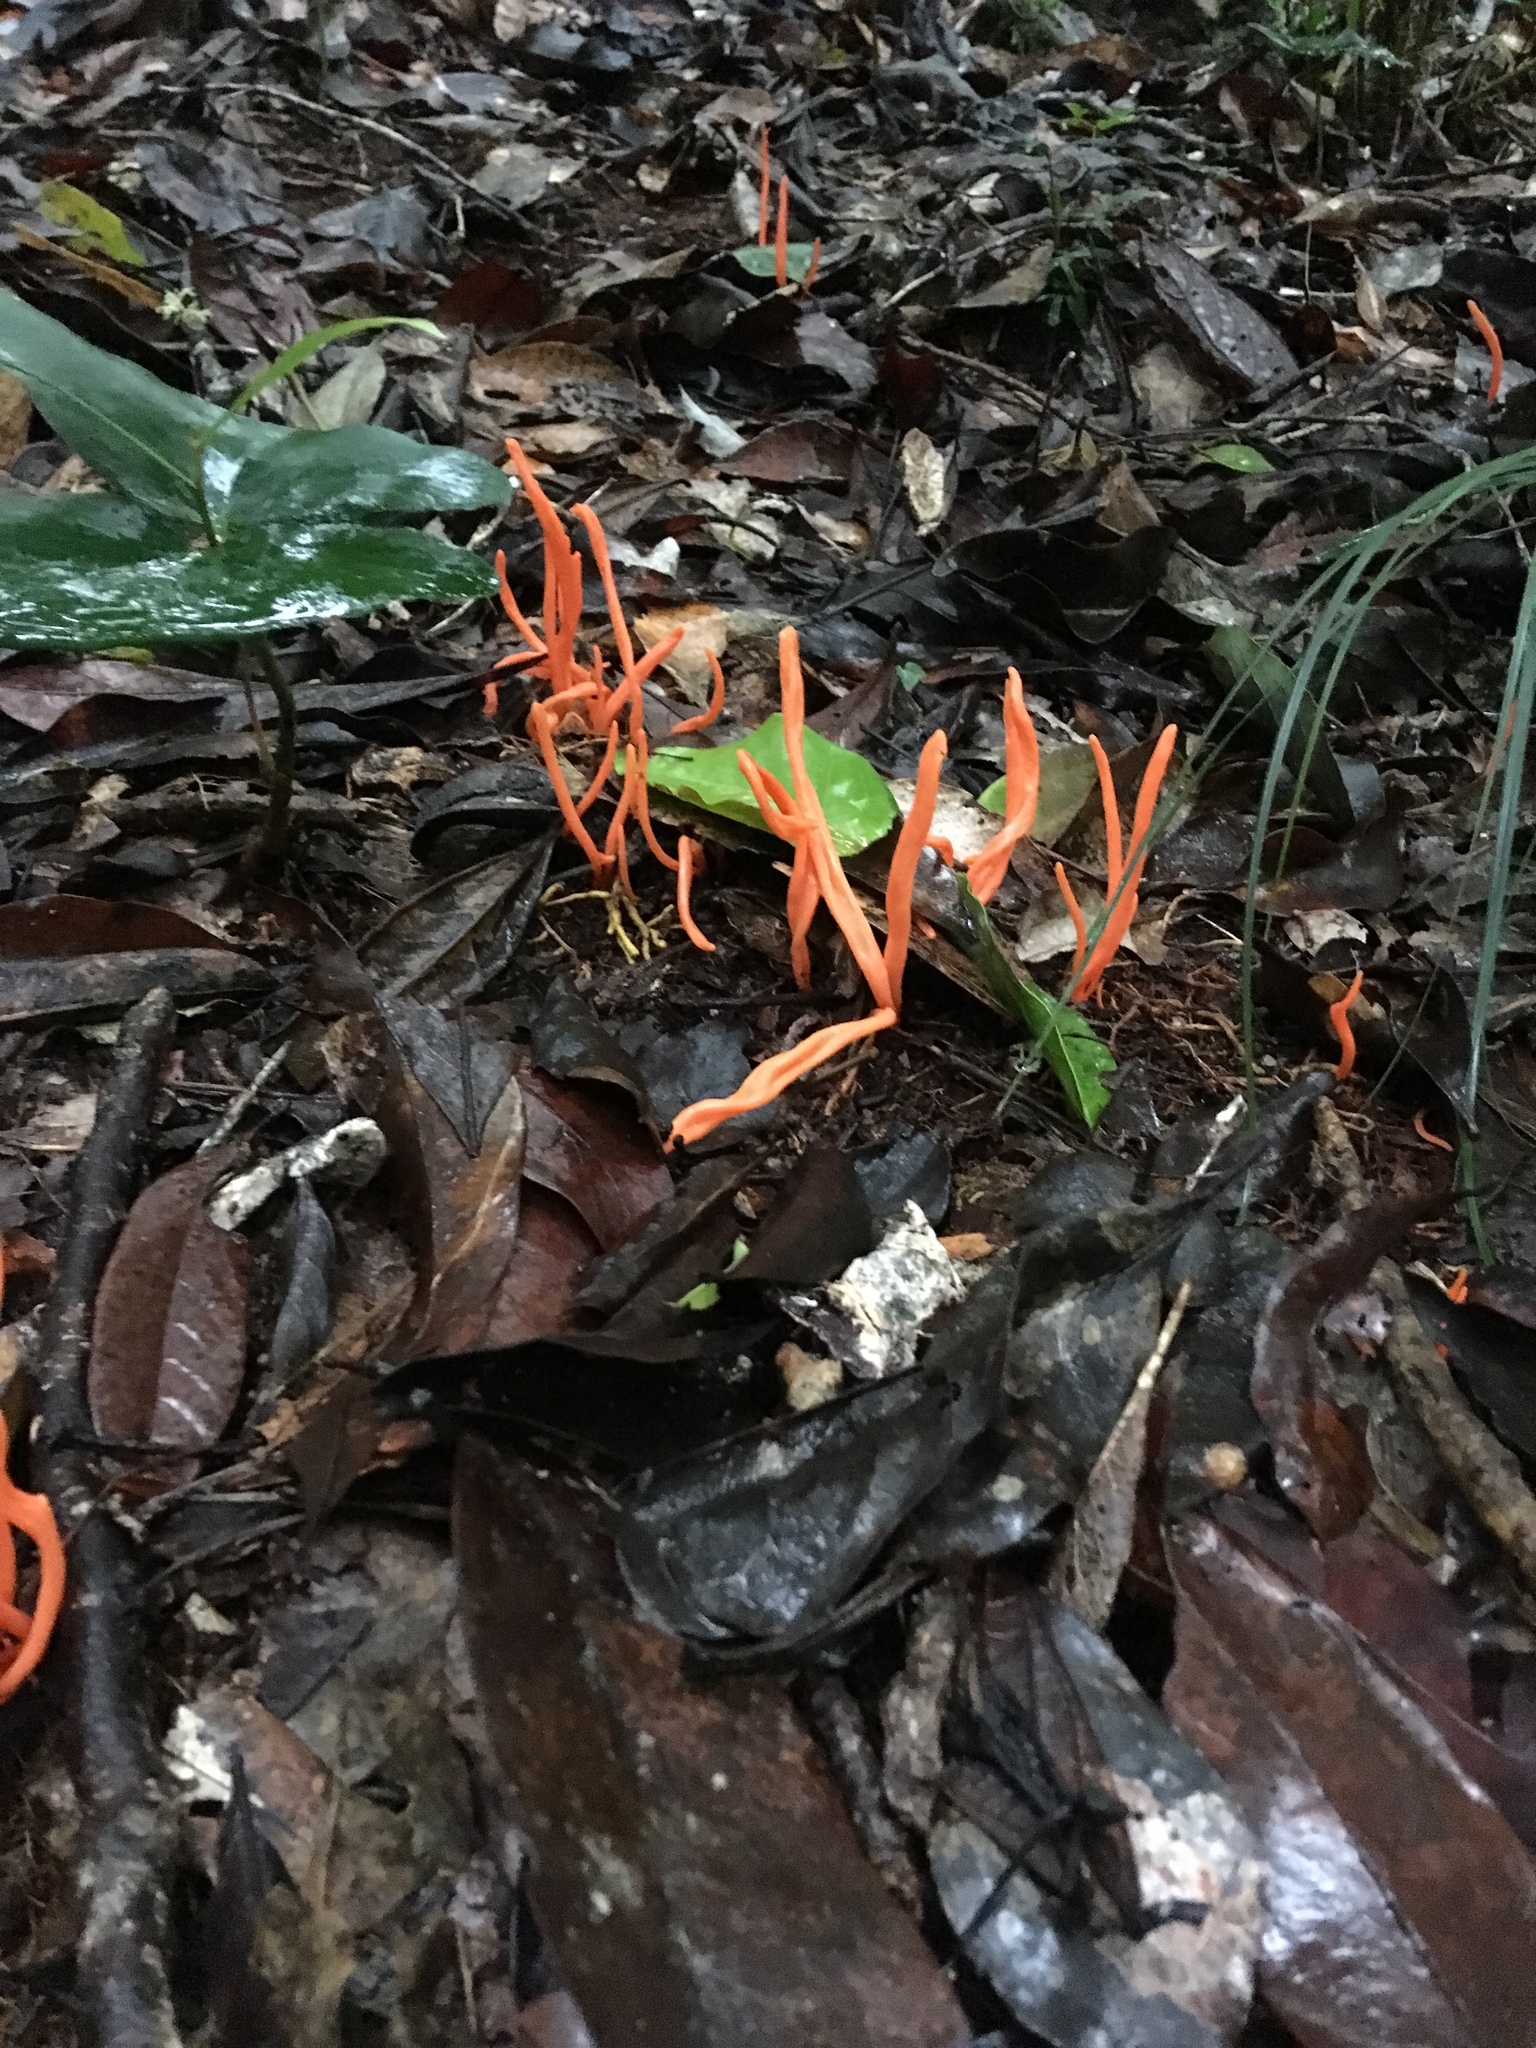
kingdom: Fungi
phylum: Basidiomycota
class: Agaricomycetes
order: Agaricales
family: Clavariaceae
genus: Clavulinopsis
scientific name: Clavulinopsis corallinorosacea
